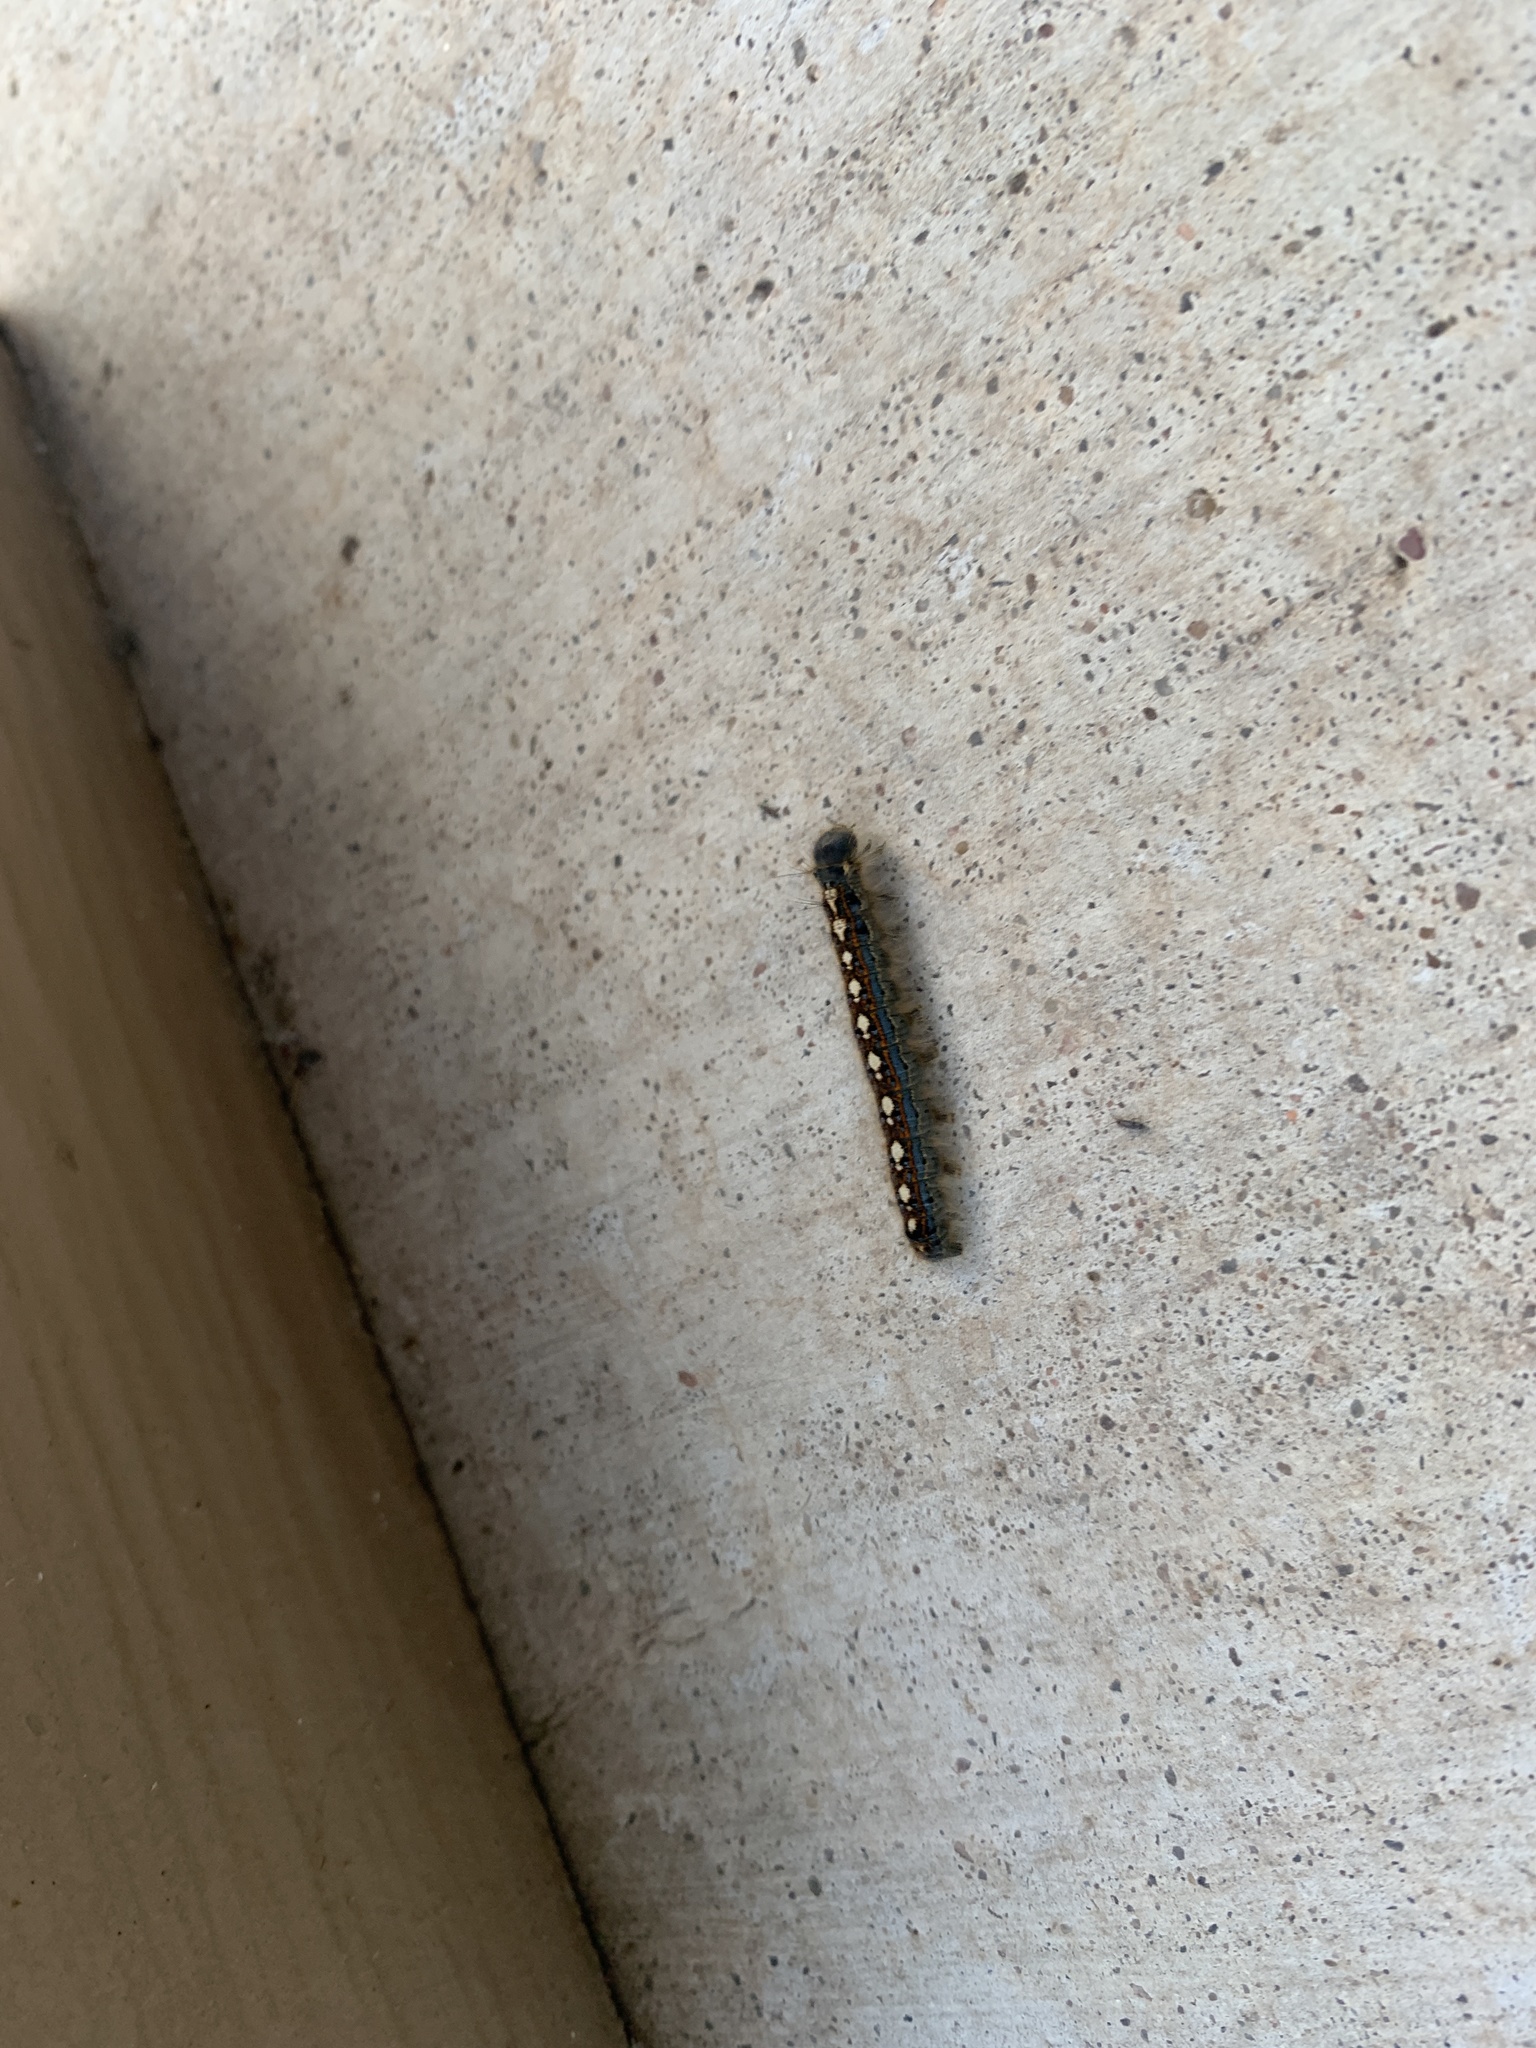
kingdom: Animalia
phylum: Arthropoda
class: Insecta
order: Lepidoptera
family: Lasiocampidae
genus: Malacosoma
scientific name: Malacosoma disstria
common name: Forest tent caterpillar
